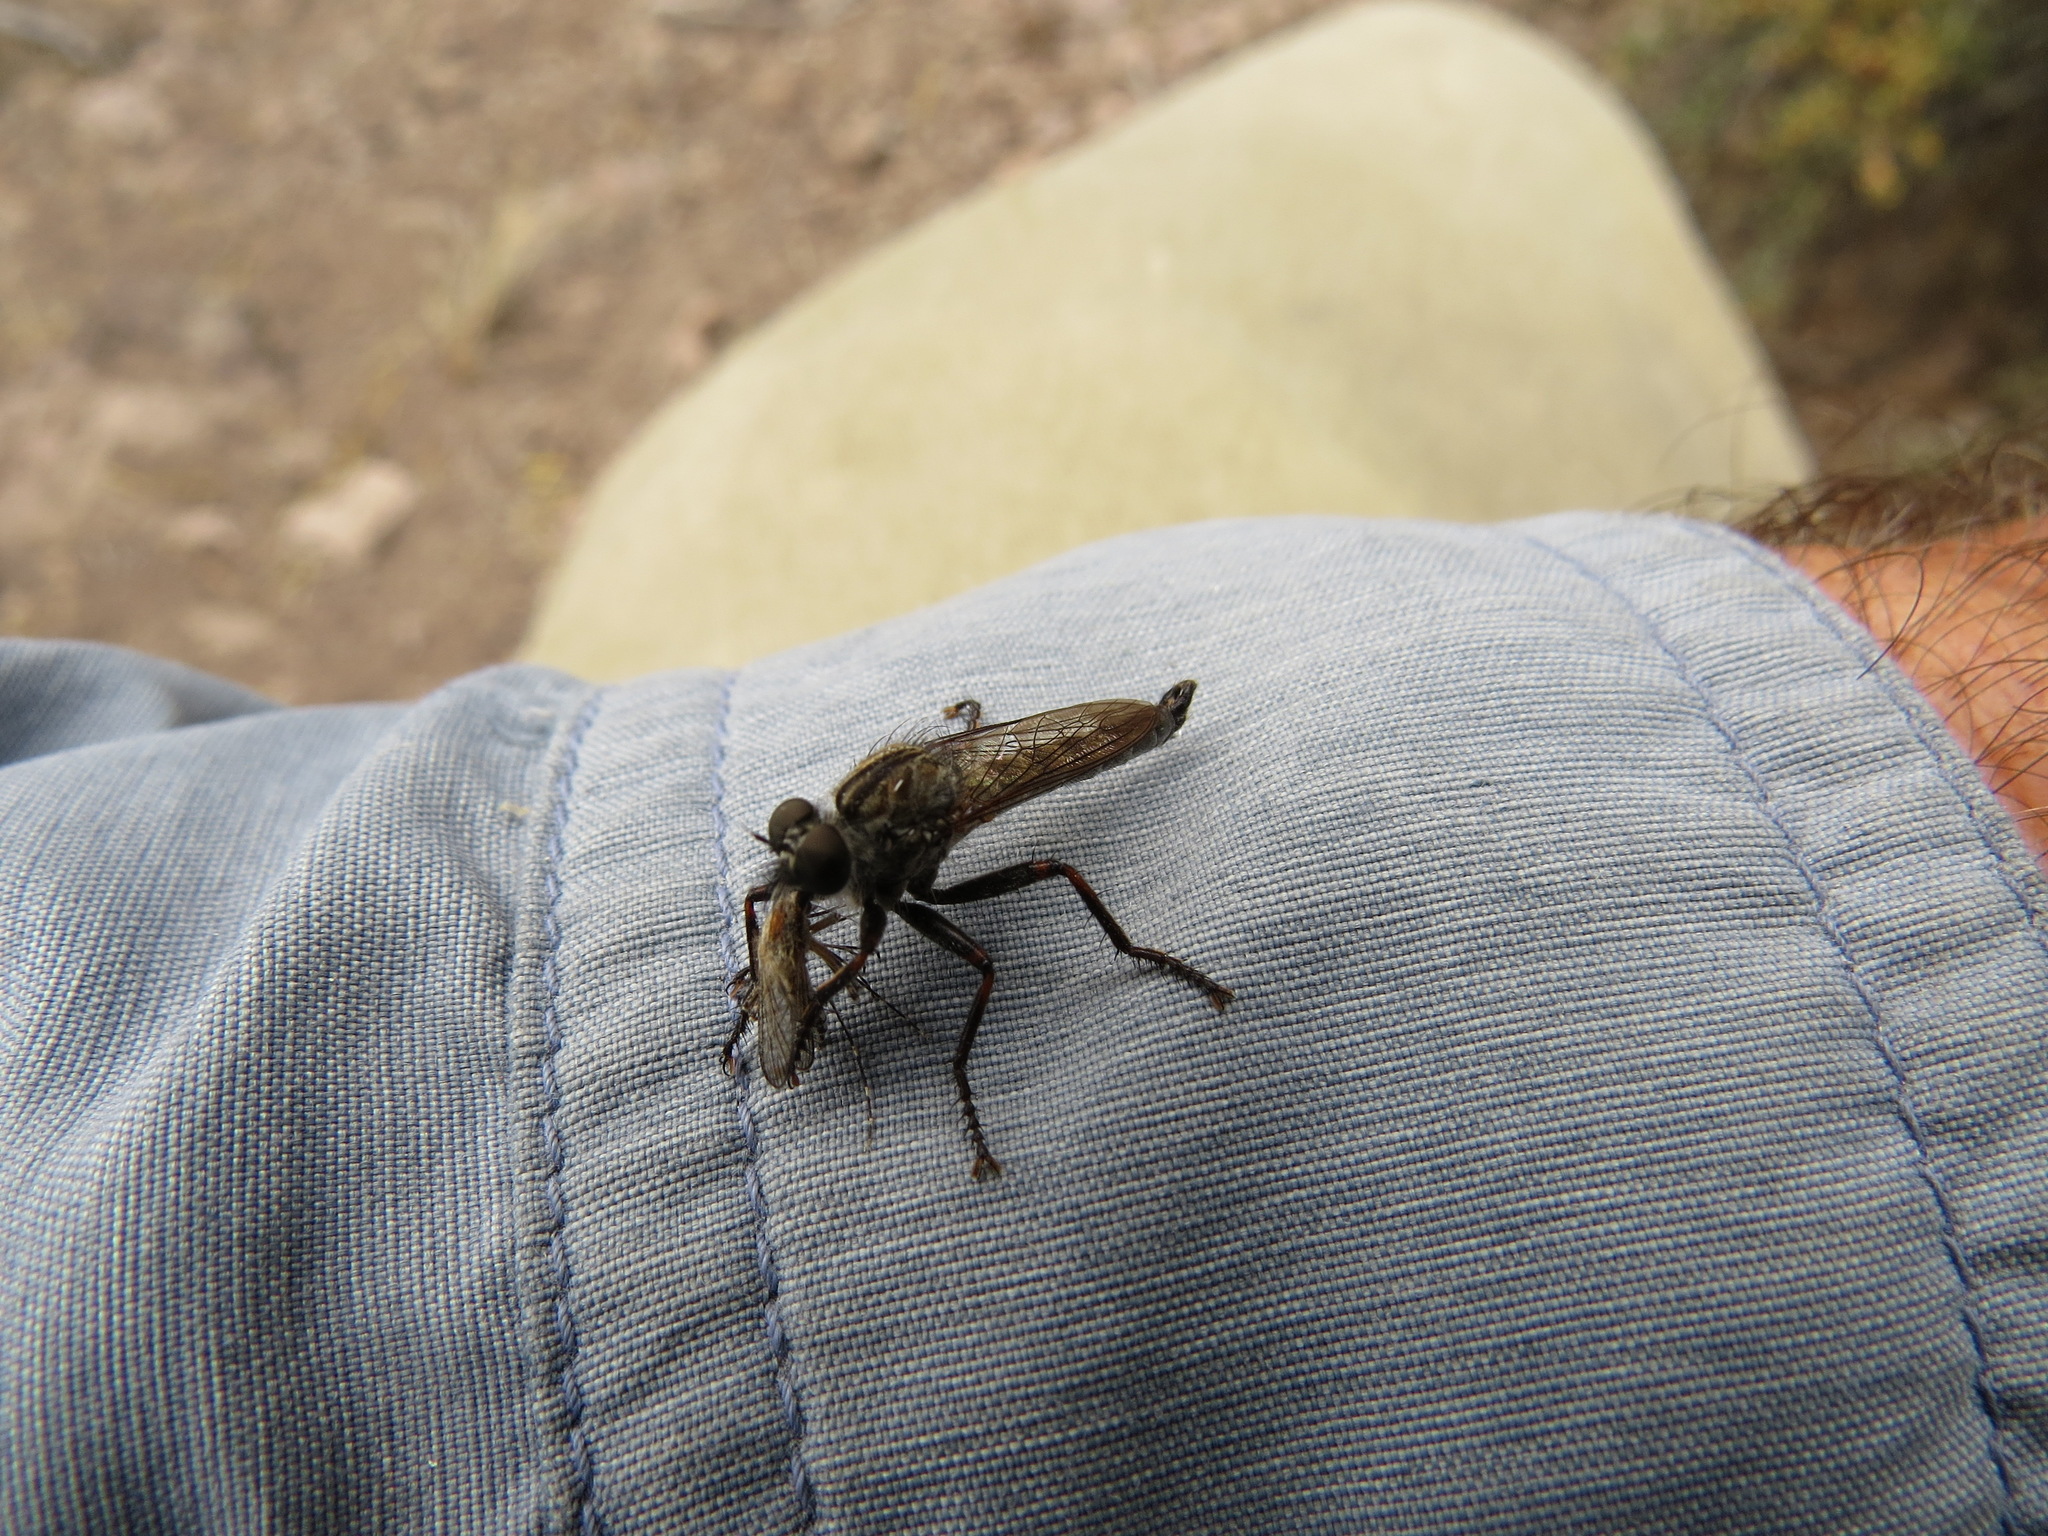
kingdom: Animalia
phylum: Arthropoda
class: Insecta
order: Diptera
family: Culicidae
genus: Aedes
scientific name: Aedes melanimon
